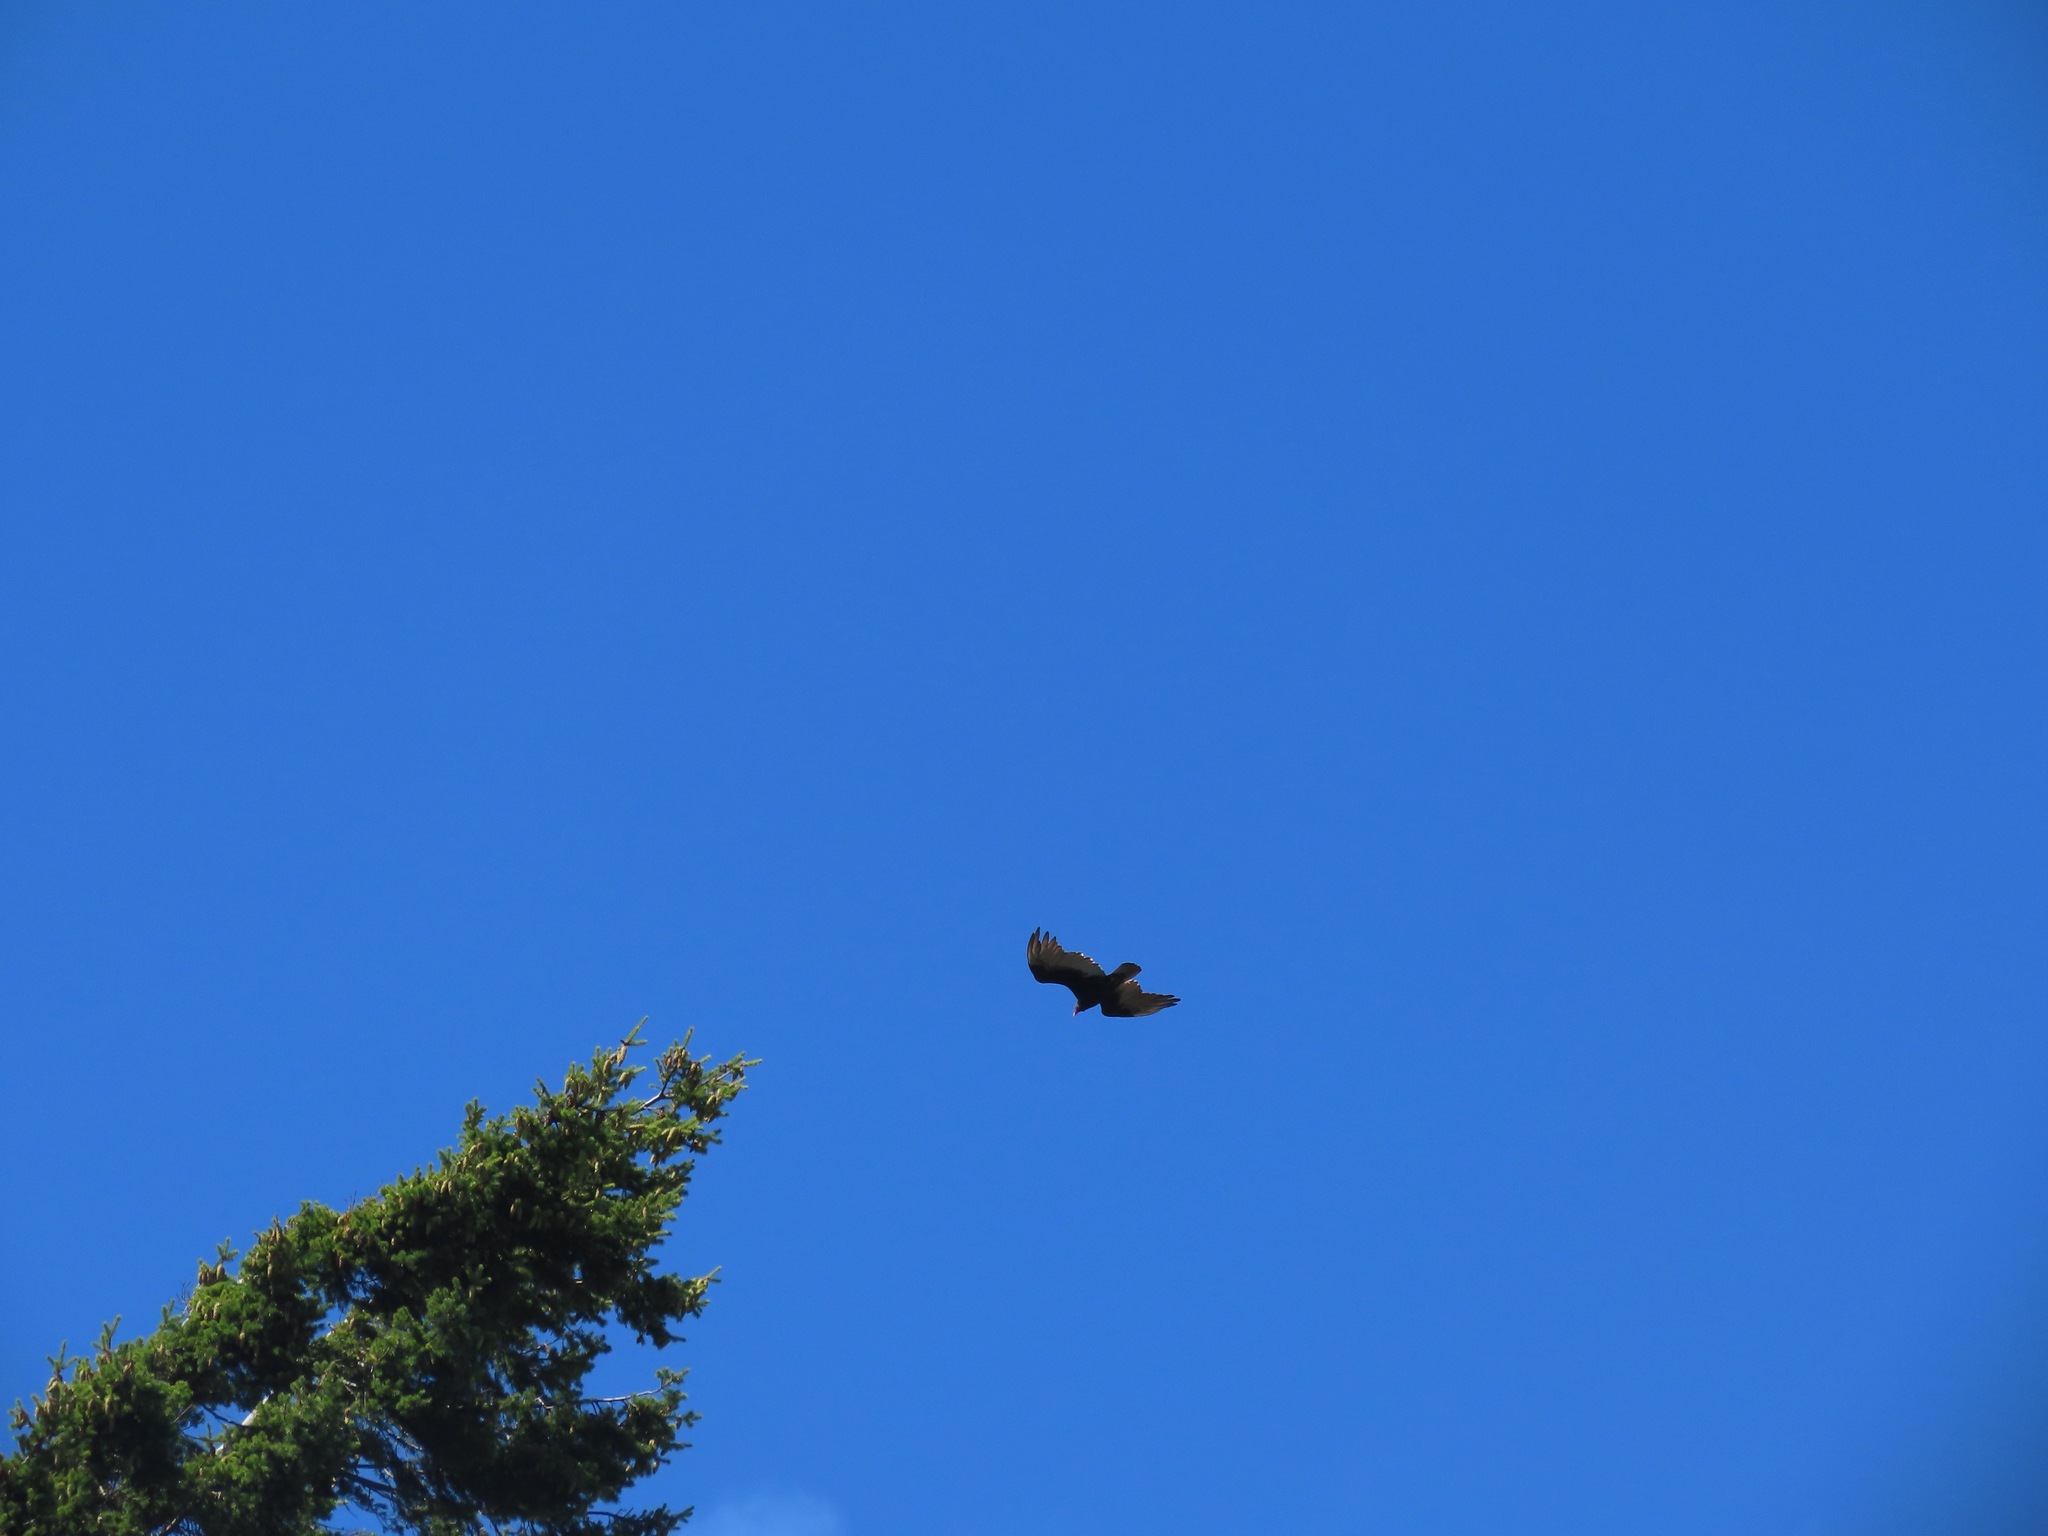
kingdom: Animalia
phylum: Chordata
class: Aves
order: Accipitriformes
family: Cathartidae
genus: Cathartes
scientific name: Cathartes aura
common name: Turkey vulture
